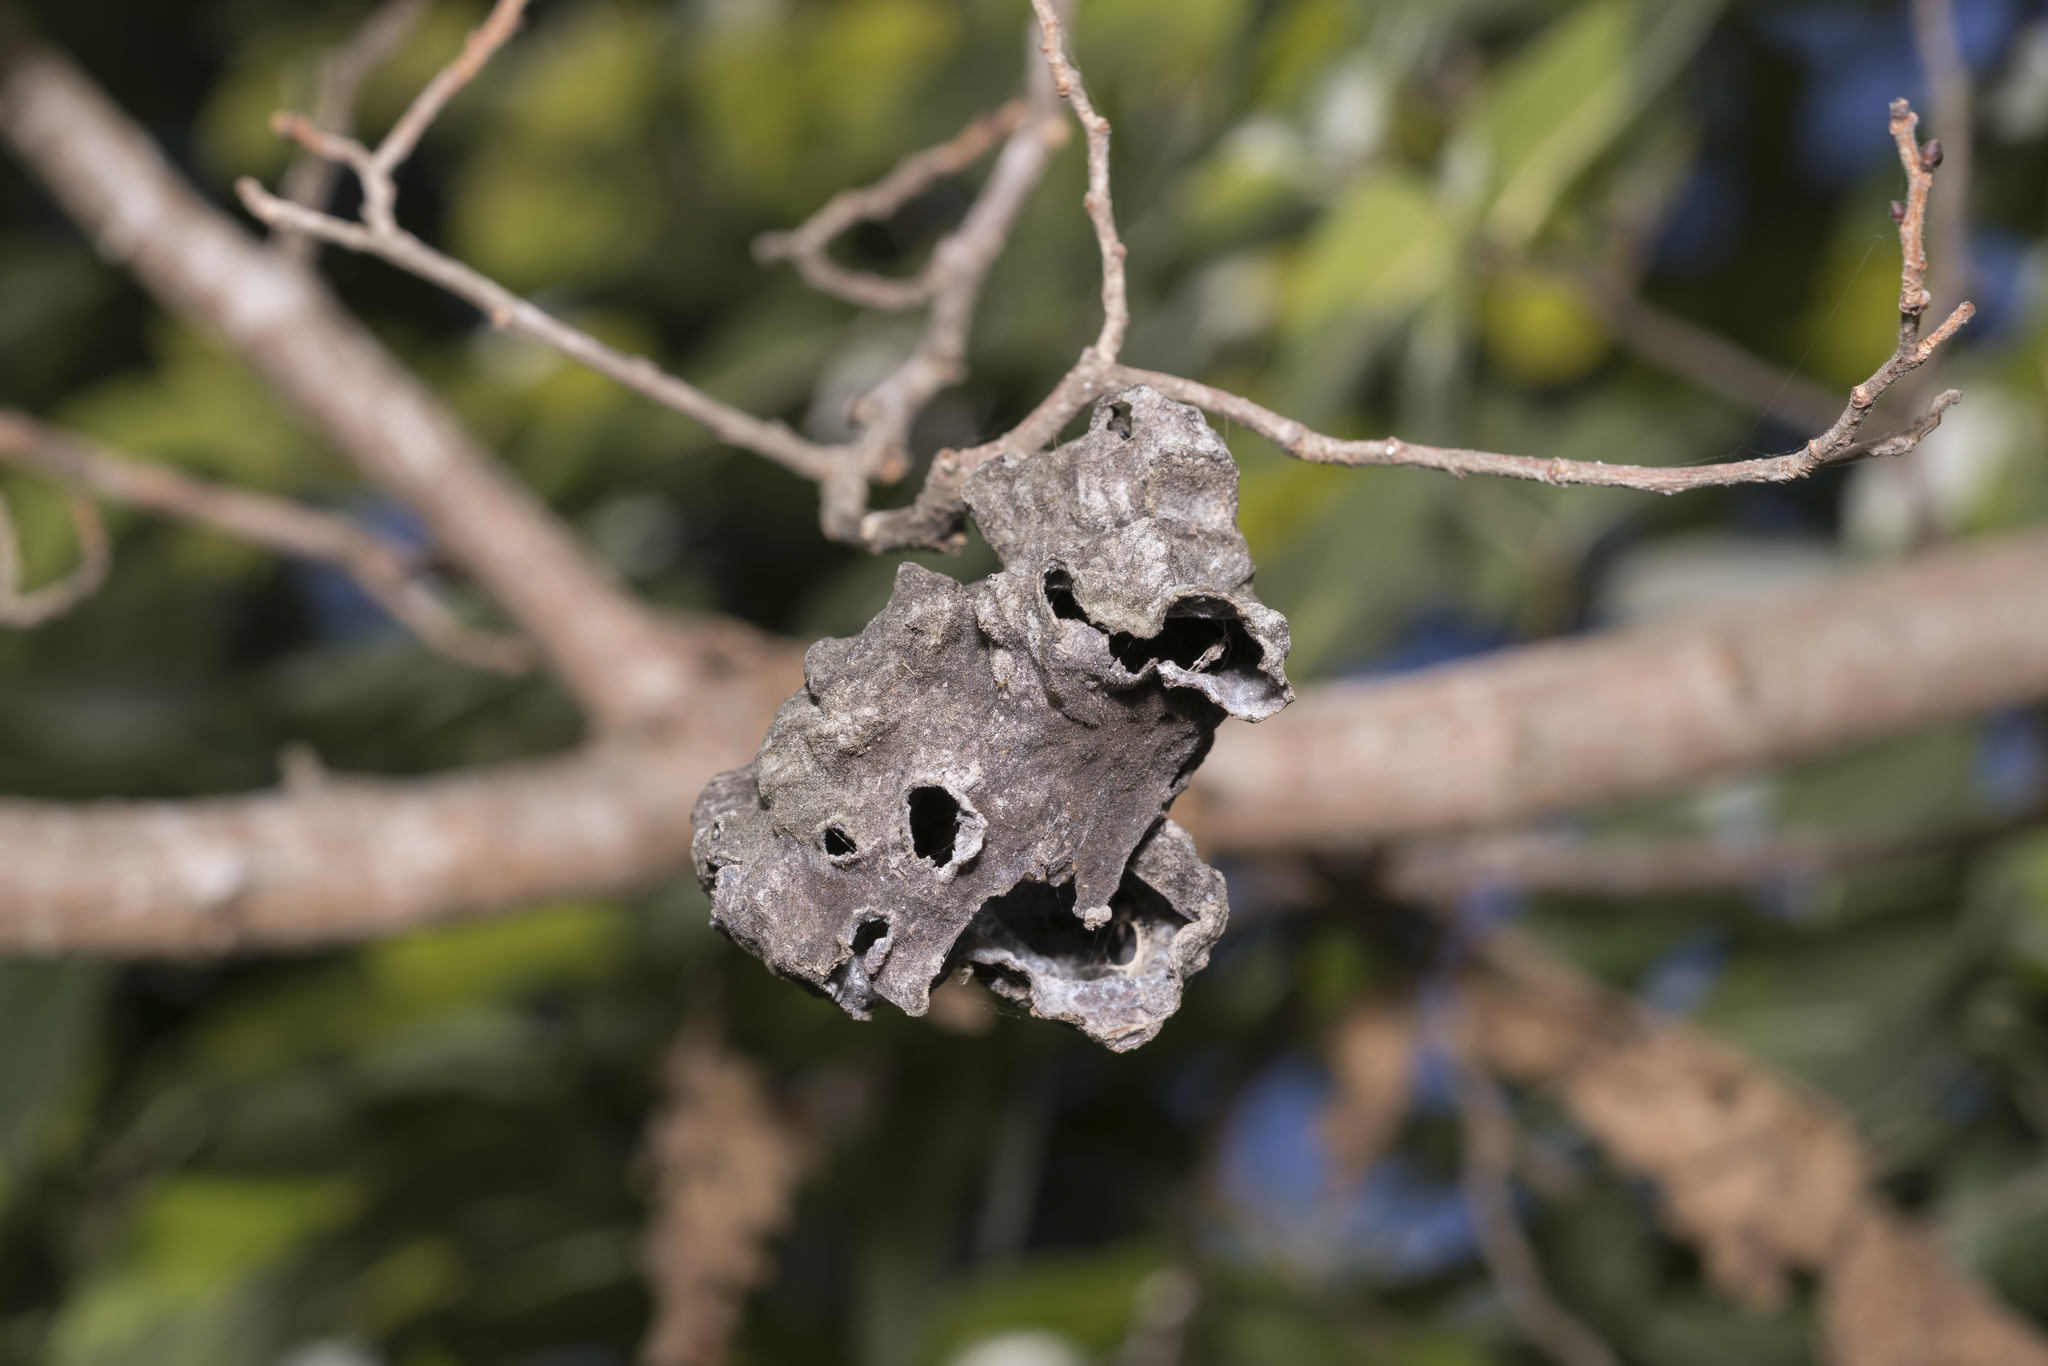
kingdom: Animalia
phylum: Arthropoda
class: Insecta
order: Hemiptera
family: Aphididae
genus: Eriosoma
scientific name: Eriosoma lanuginosum
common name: Aphid
